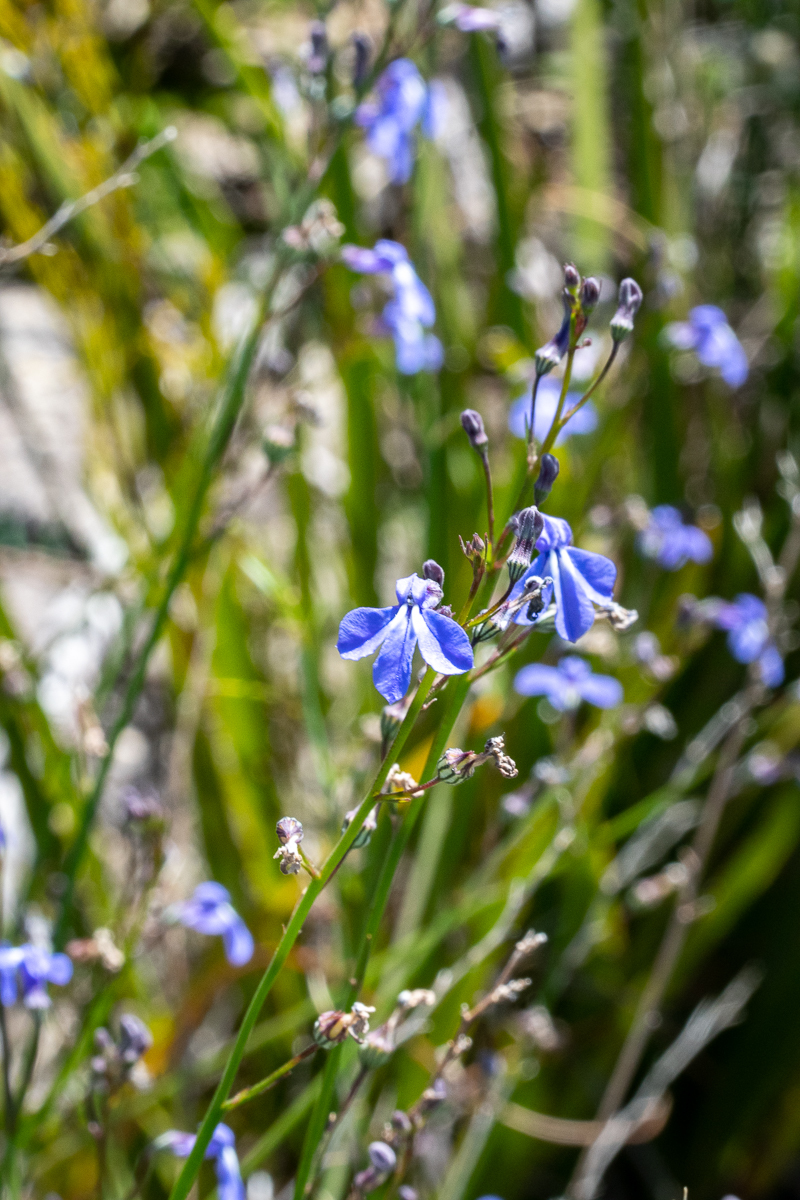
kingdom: Plantae
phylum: Tracheophyta
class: Magnoliopsida
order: Asterales
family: Campanulaceae
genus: Lobelia
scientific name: Lobelia setacea
